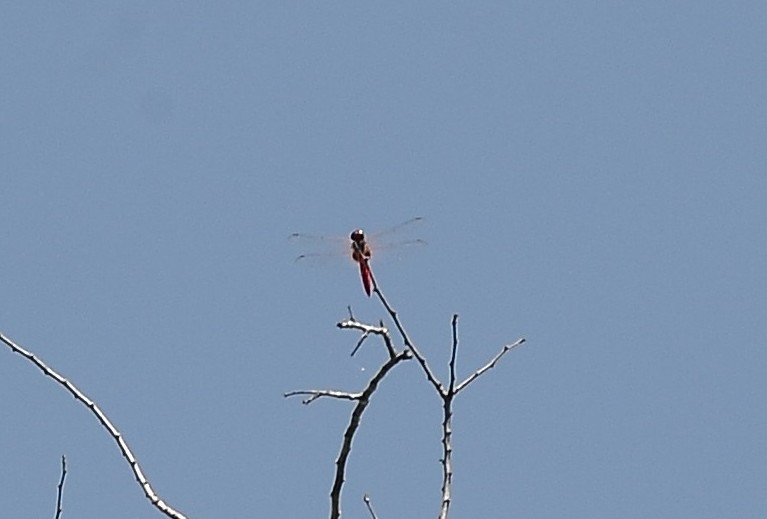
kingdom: Animalia
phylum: Arthropoda
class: Insecta
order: Odonata
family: Libellulidae
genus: Urothemis
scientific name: Urothemis signata
